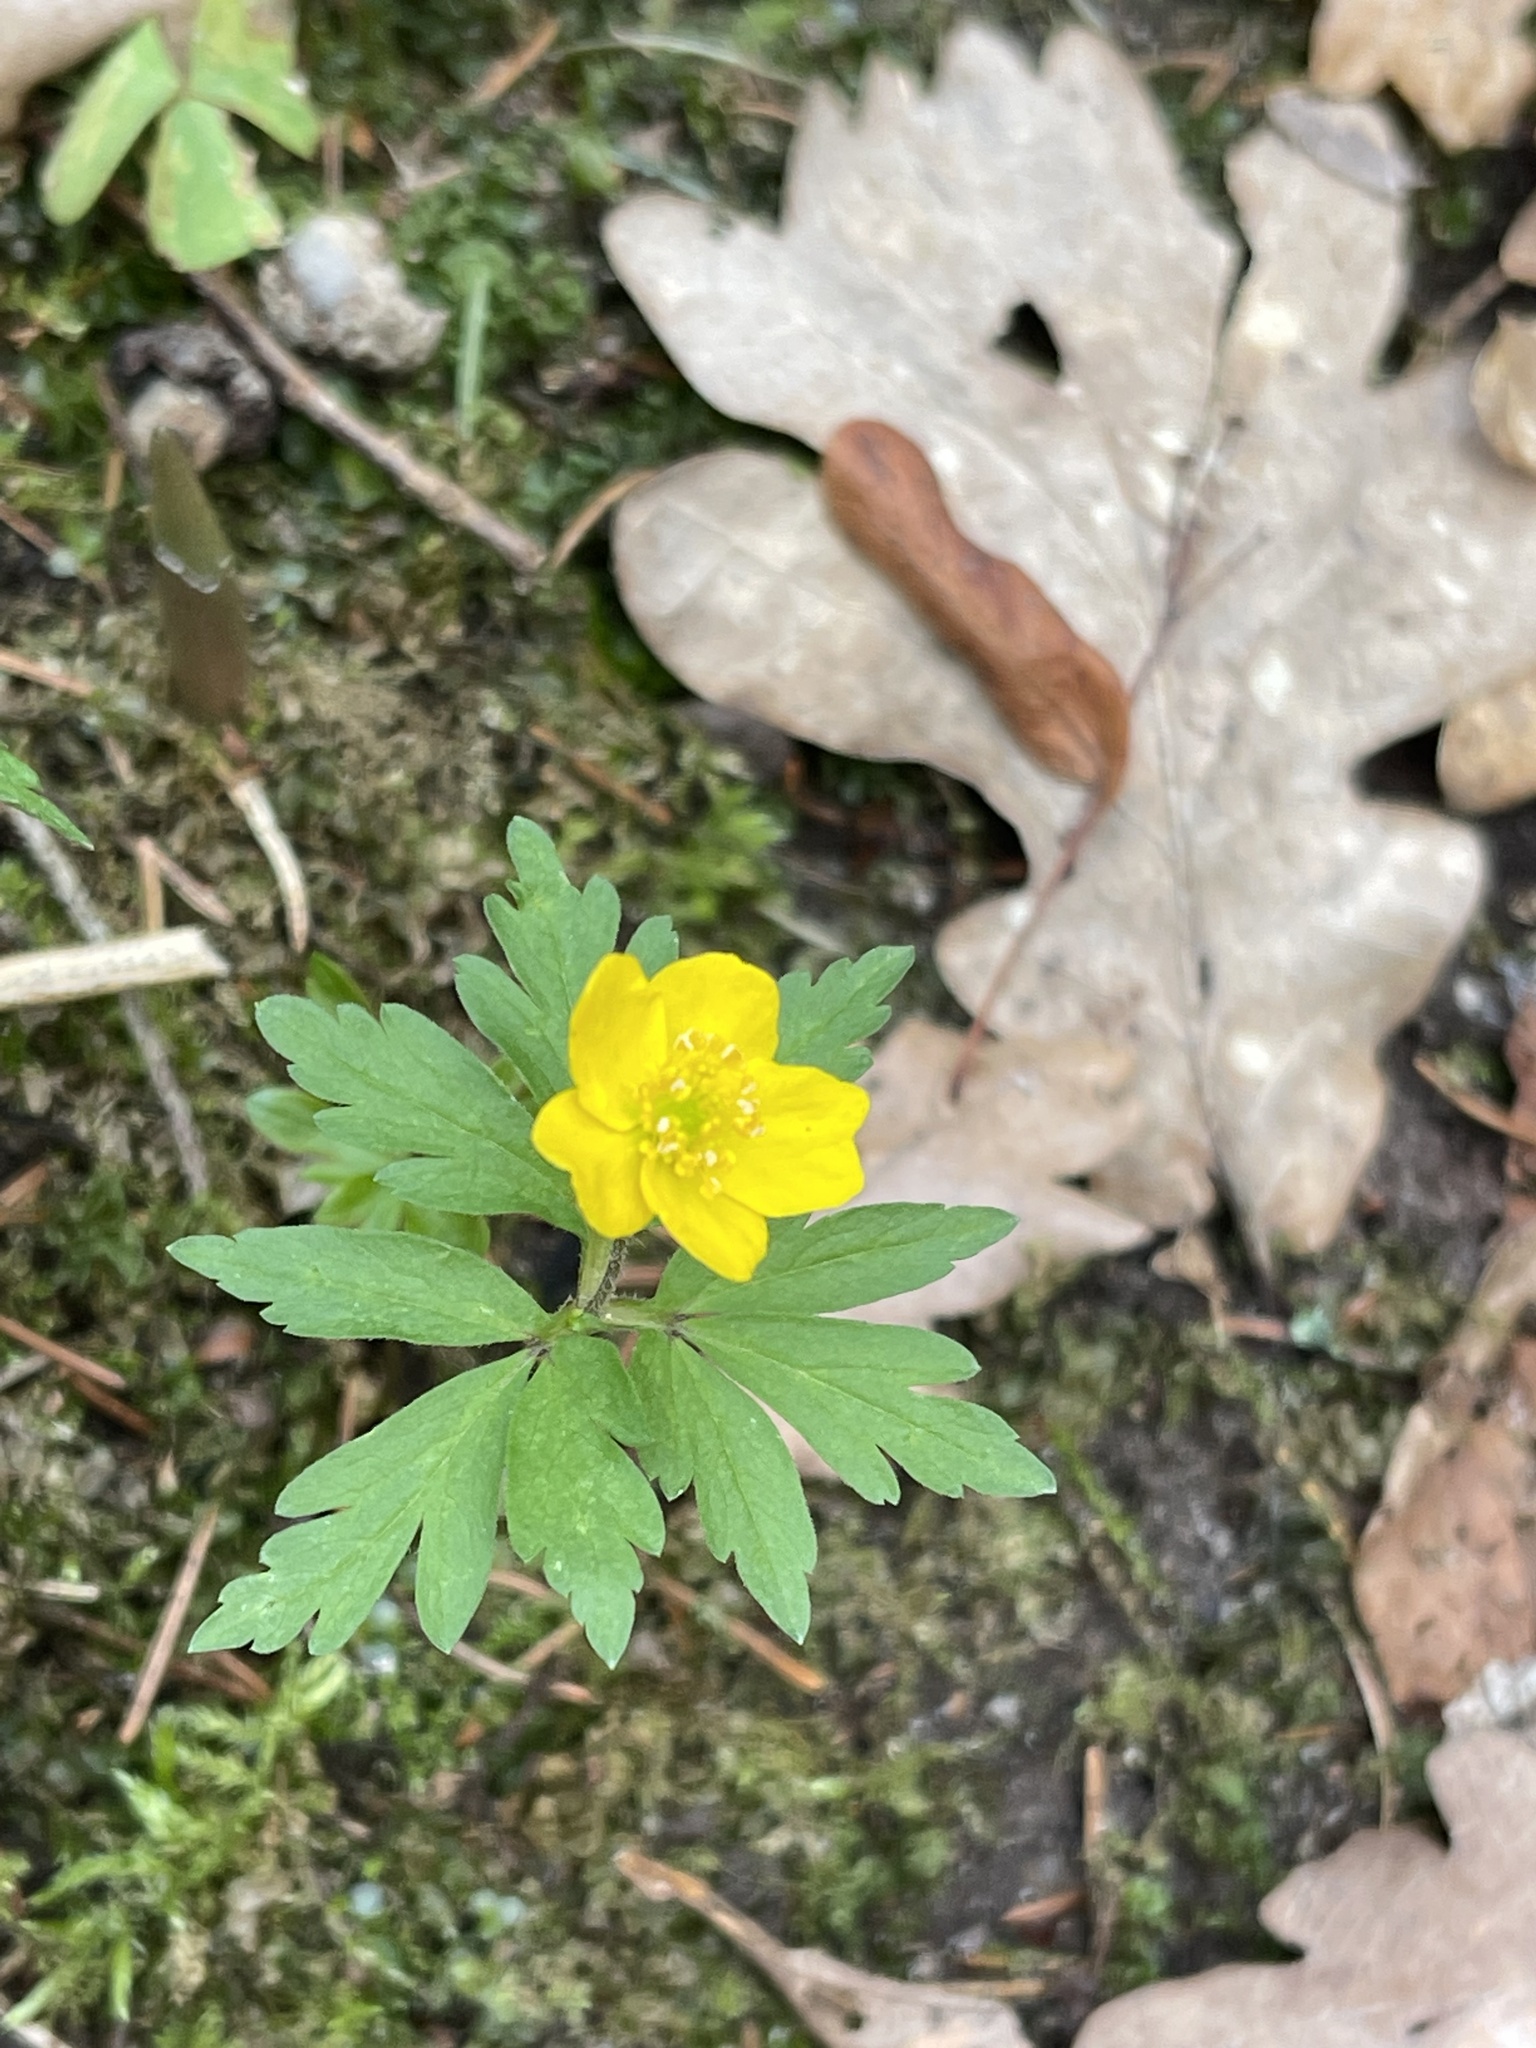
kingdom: Plantae
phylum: Tracheophyta
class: Magnoliopsida
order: Ranunculales
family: Ranunculaceae
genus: Anemone
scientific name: Anemone ranunculoides
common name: Yellow anemone
